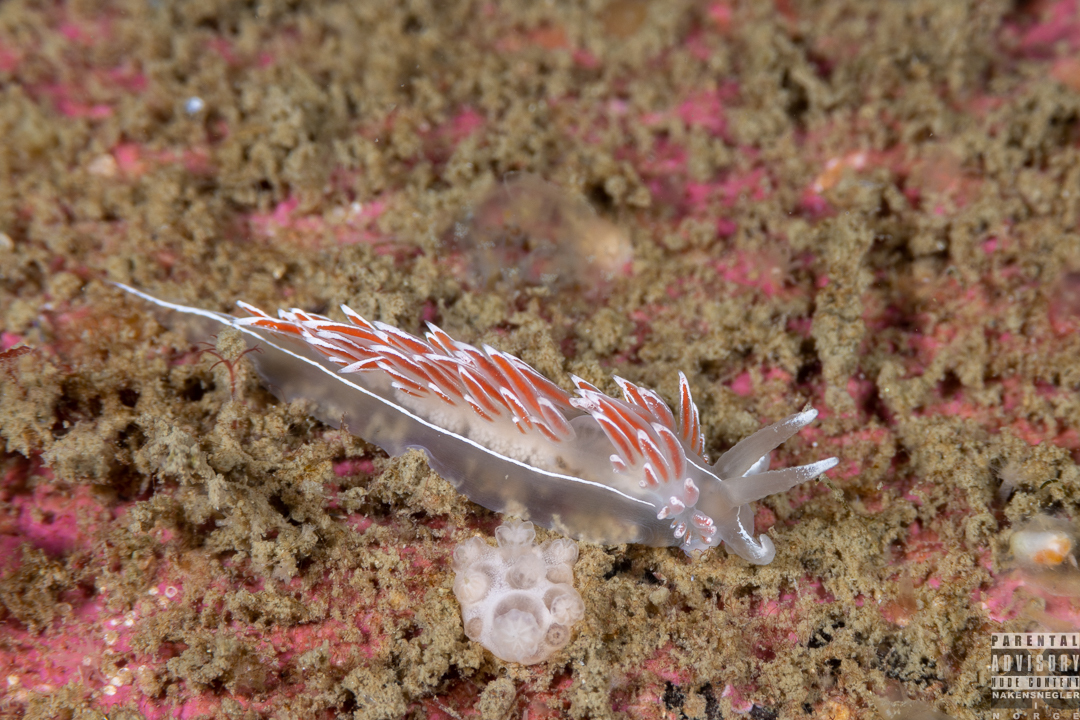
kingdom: Animalia
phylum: Mollusca
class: Gastropoda
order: Nudibranchia
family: Coryphellidae
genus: Coryphella
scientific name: Coryphella lineata
